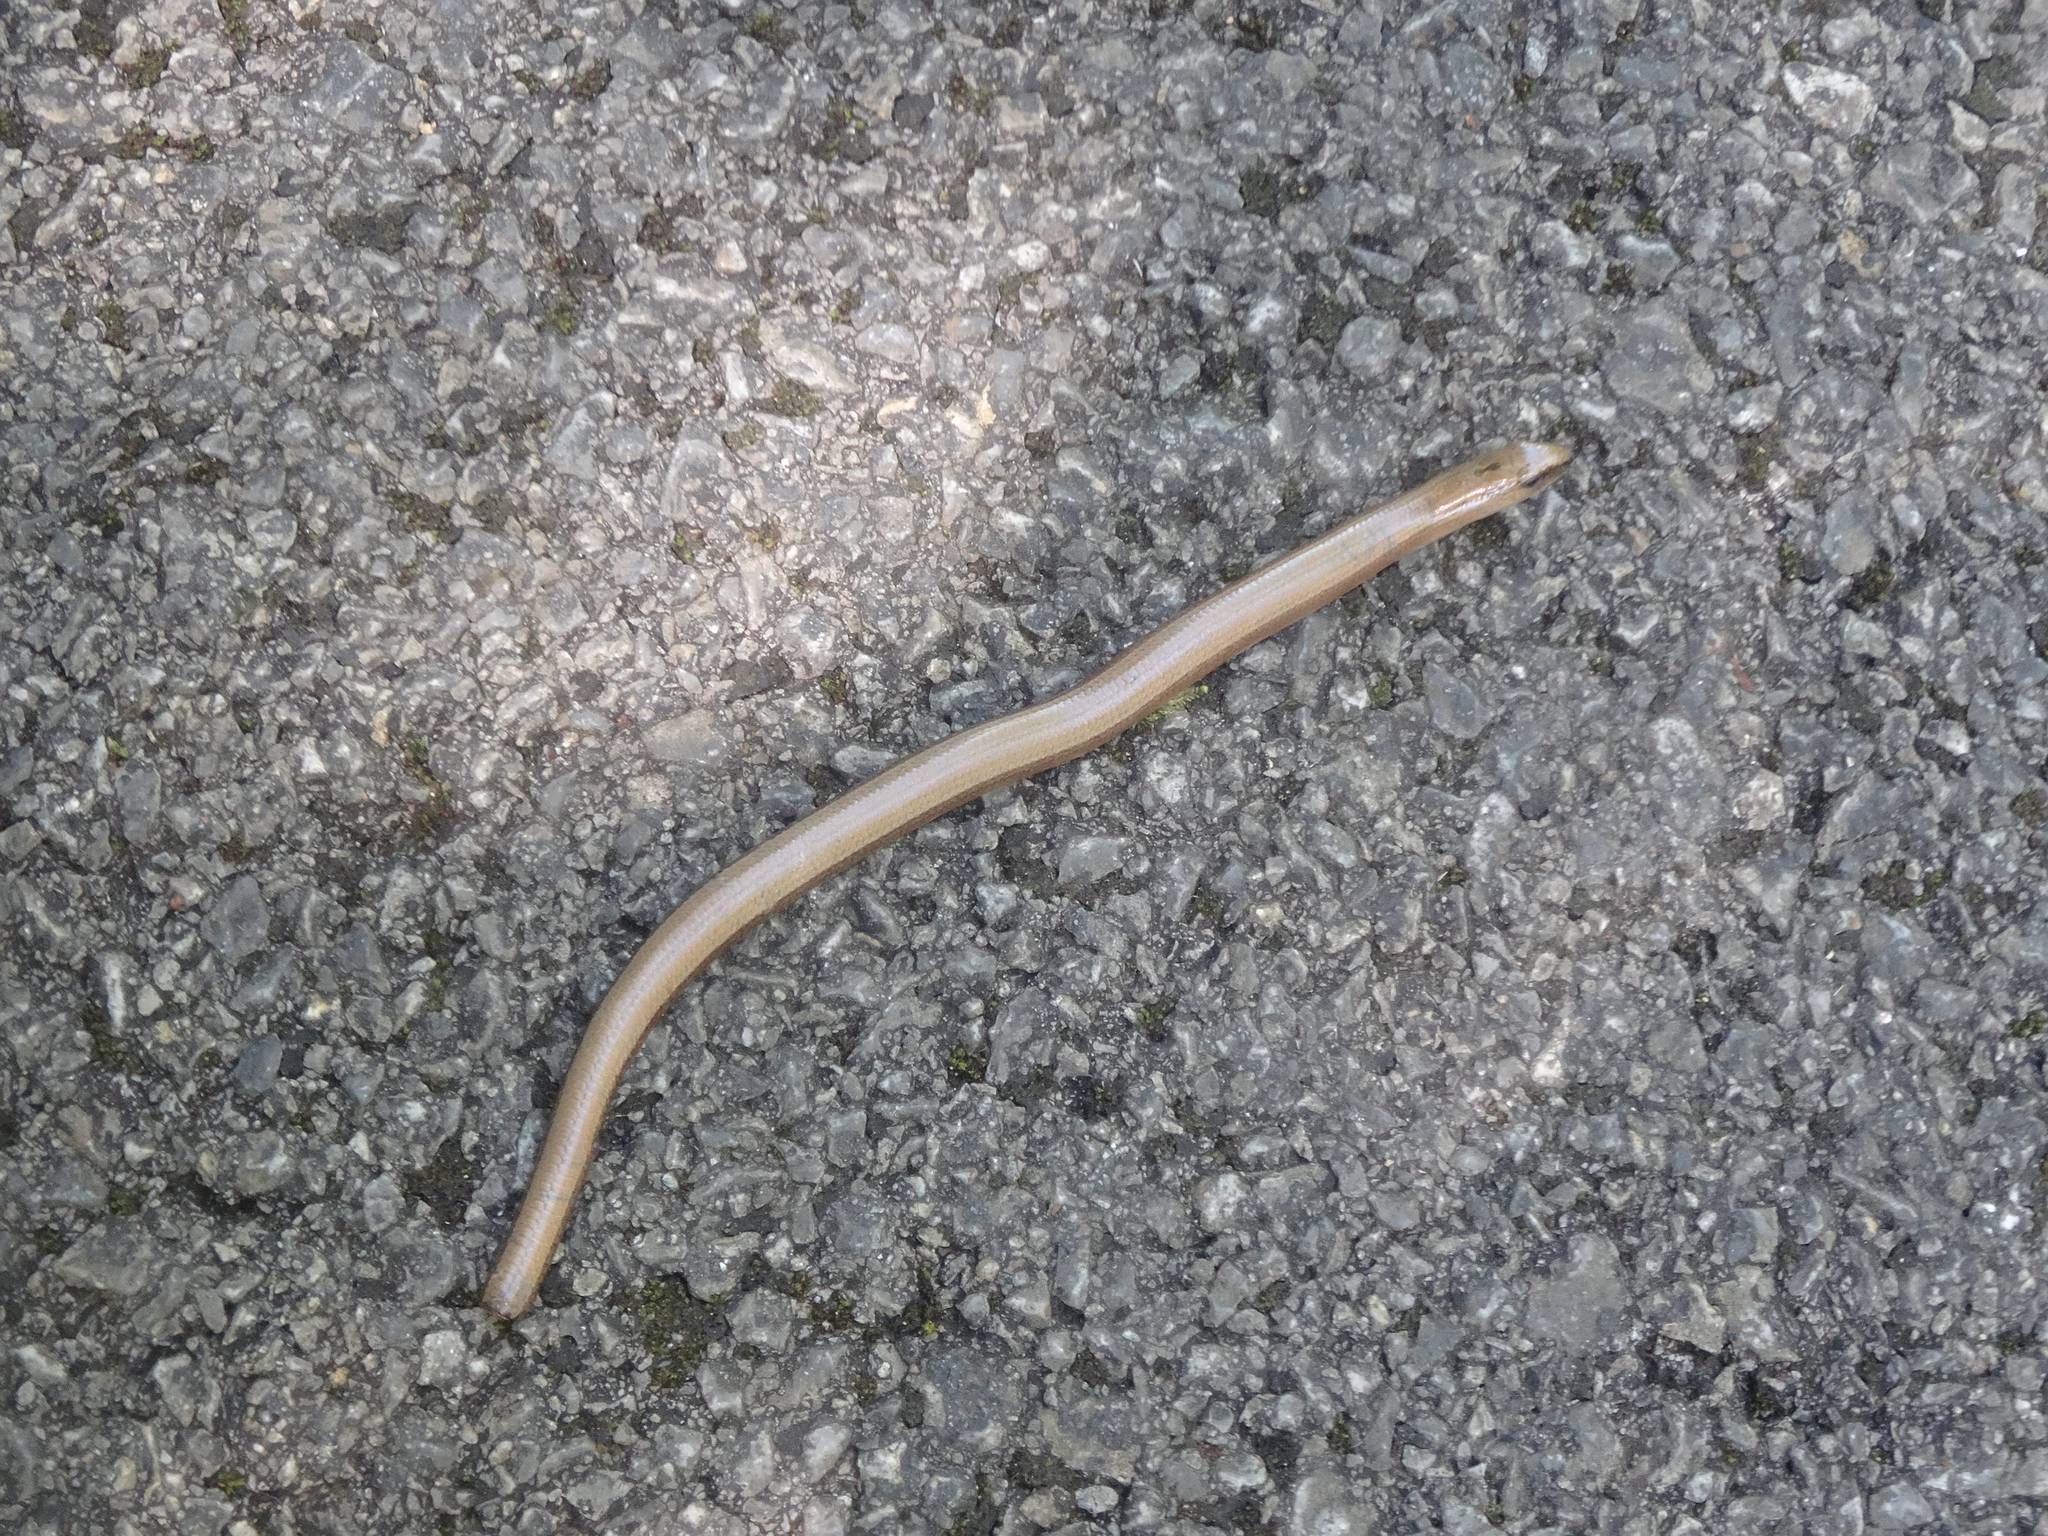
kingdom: Animalia
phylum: Chordata
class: Squamata
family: Anguidae
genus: Anguis
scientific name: Anguis fragilis
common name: Slow worm
